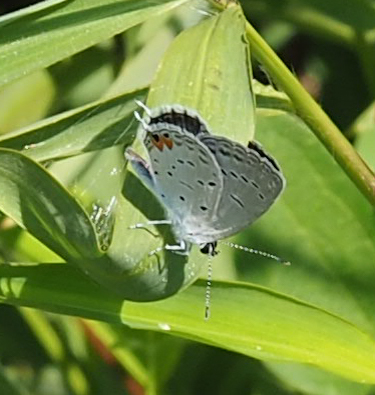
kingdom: Animalia
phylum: Arthropoda
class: Insecta
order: Lepidoptera
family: Lycaenidae
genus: Elkalyce
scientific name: Elkalyce comyntas
